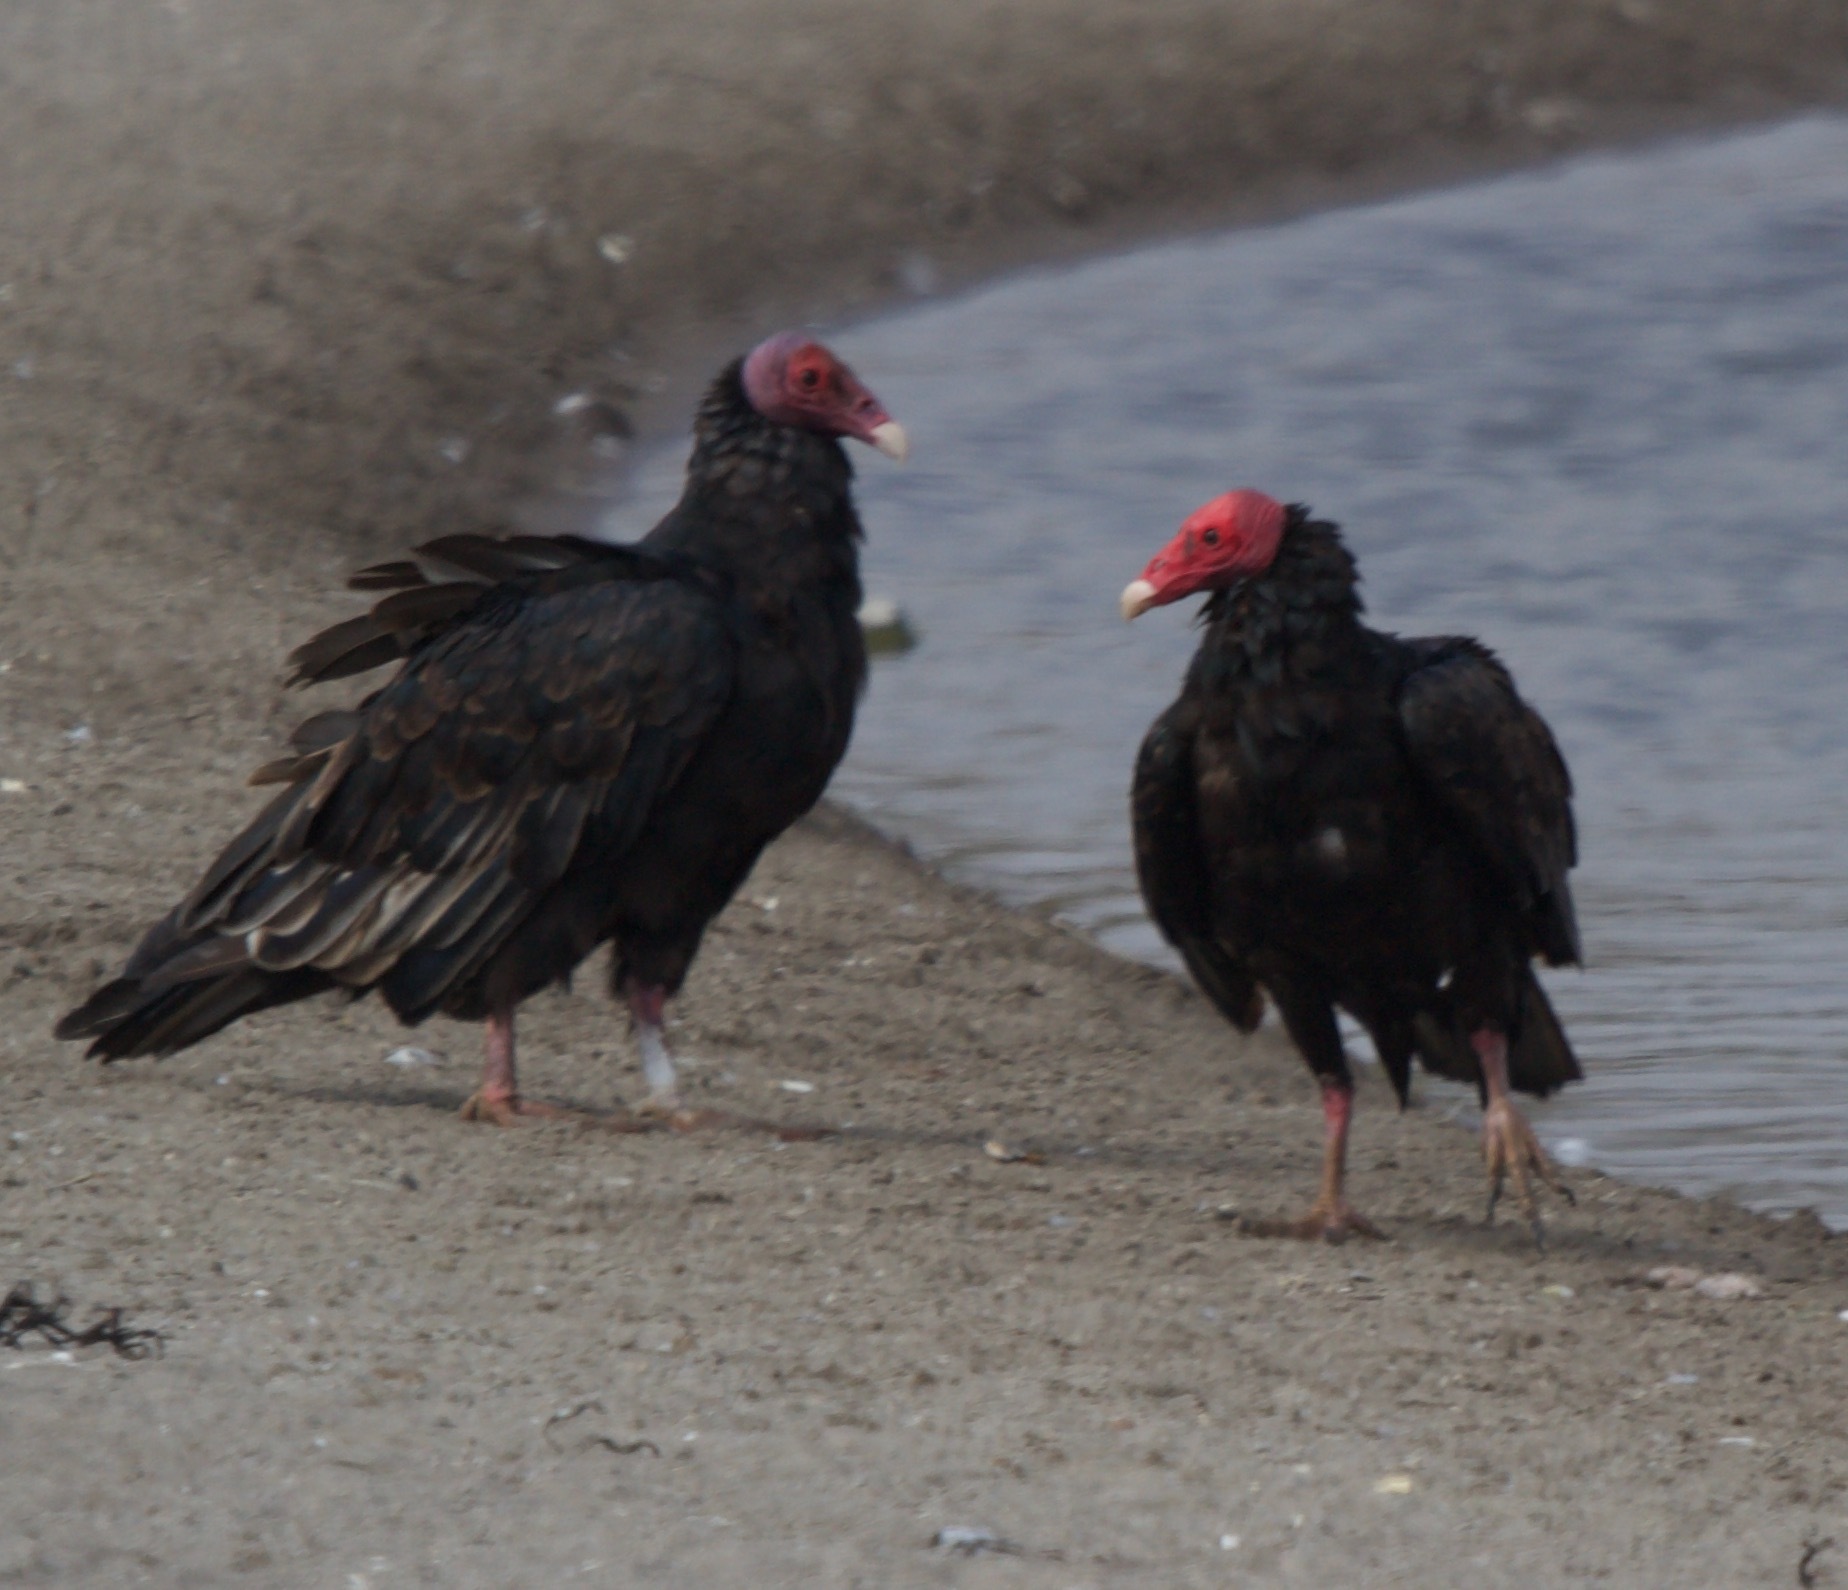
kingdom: Animalia
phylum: Chordata
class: Aves
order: Accipitriformes
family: Cathartidae
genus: Cathartes
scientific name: Cathartes aura
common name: Turkey vulture
